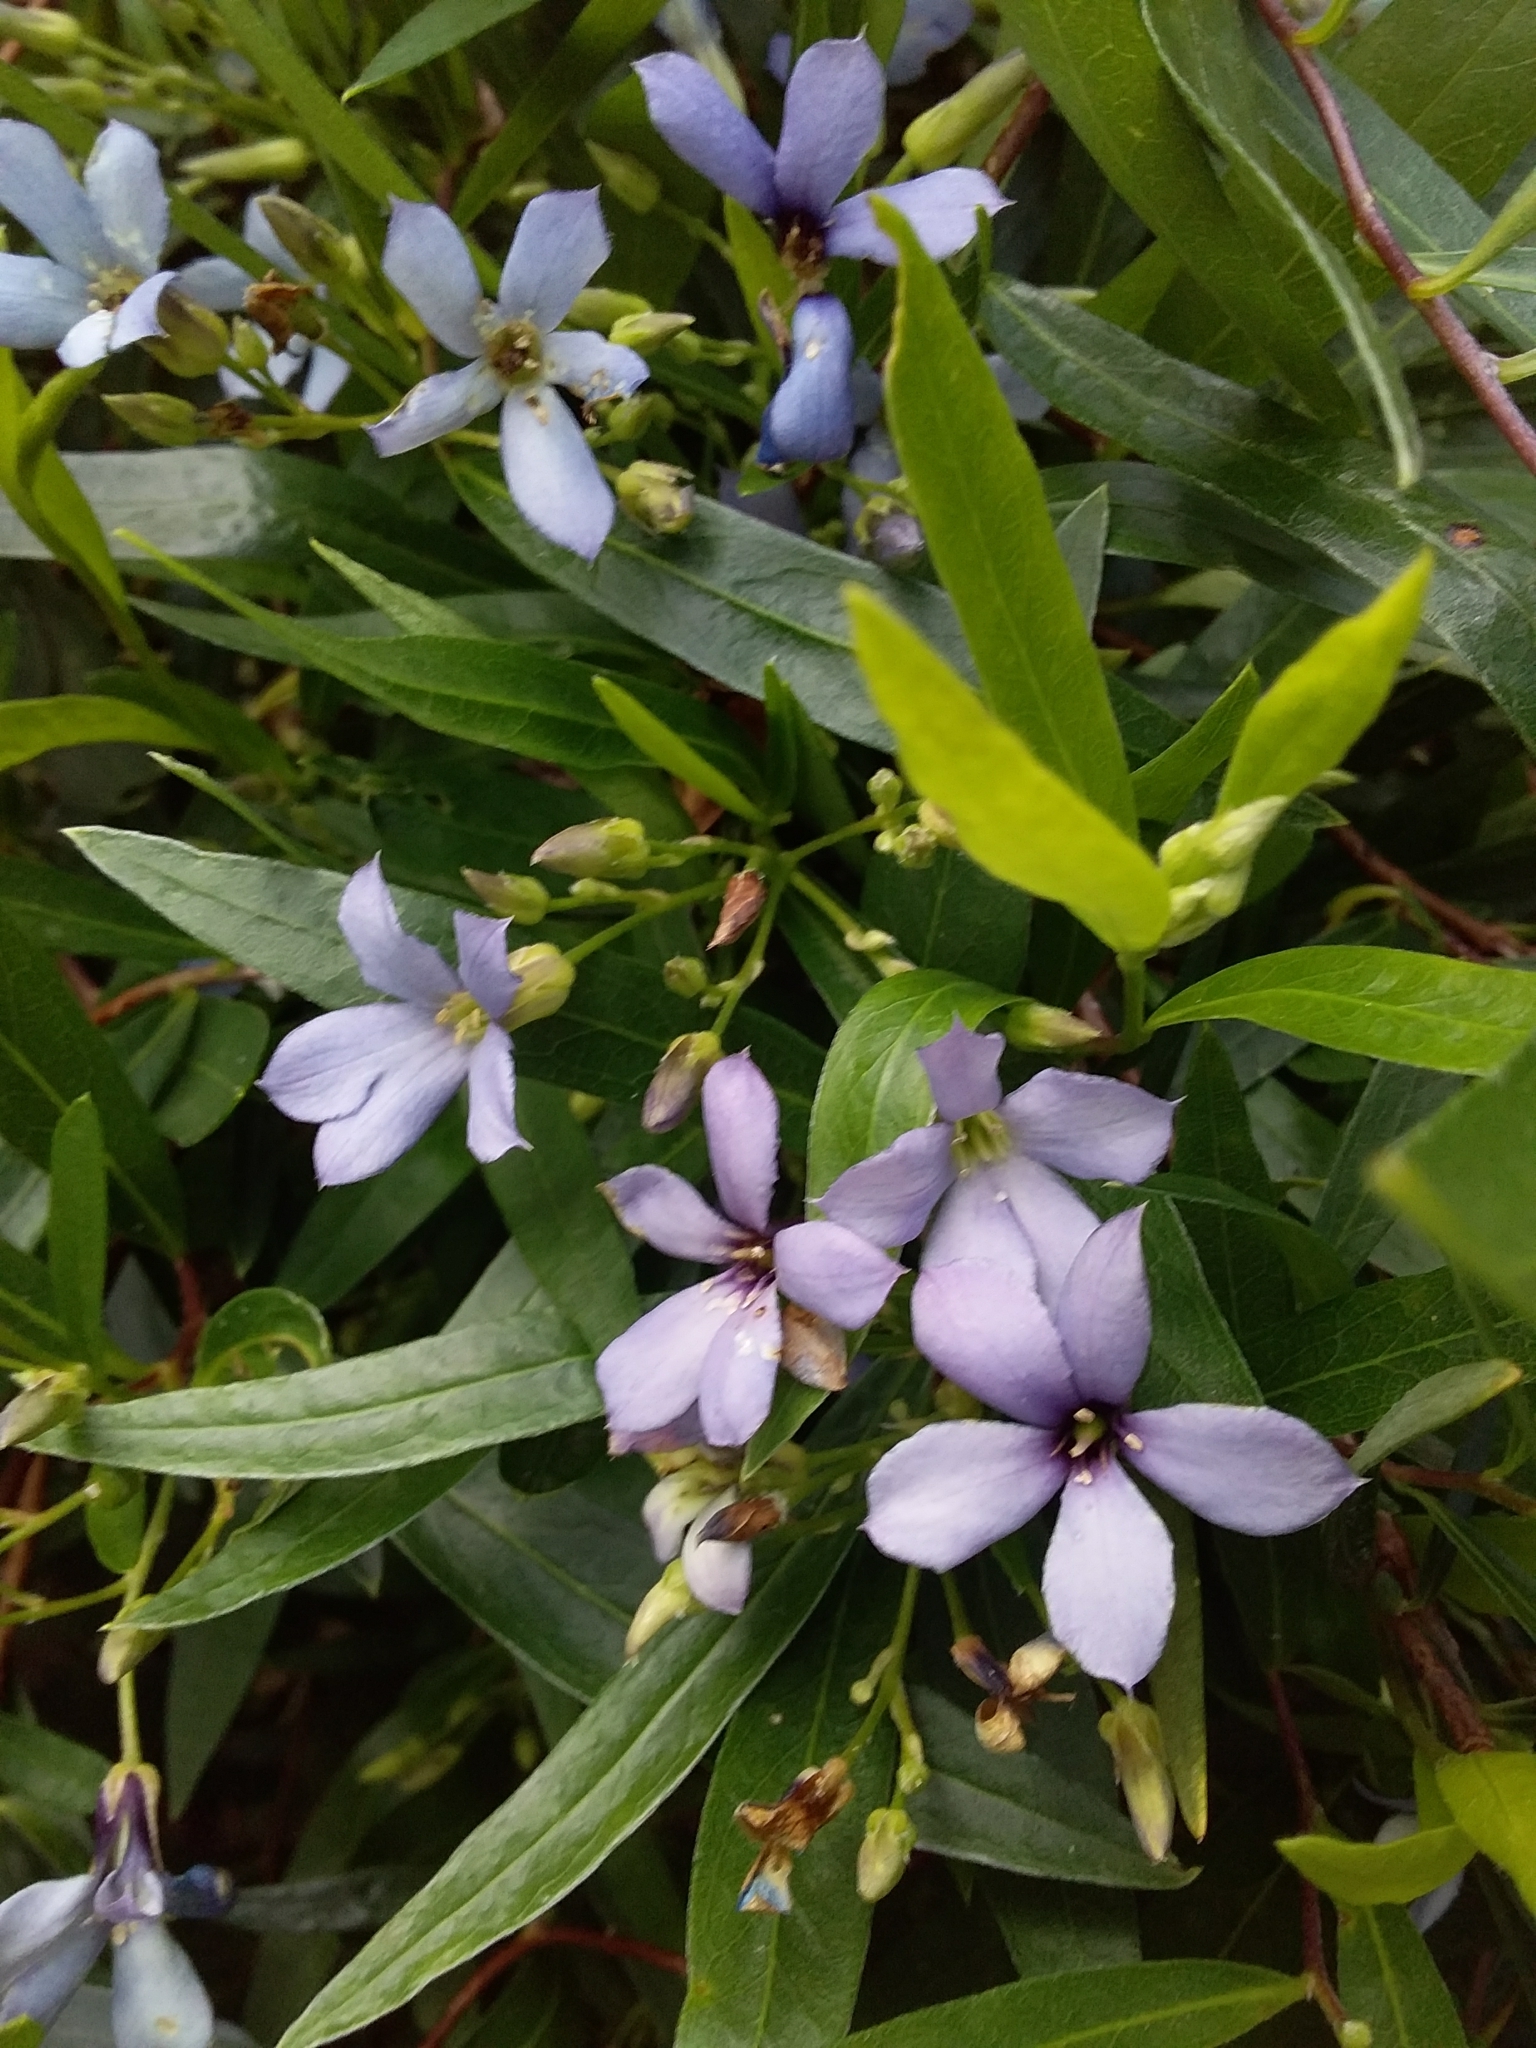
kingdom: Plantae
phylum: Tracheophyta
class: Magnoliopsida
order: Apiales
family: Pittosporaceae
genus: Billardiera
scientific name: Billardiera cymosa
